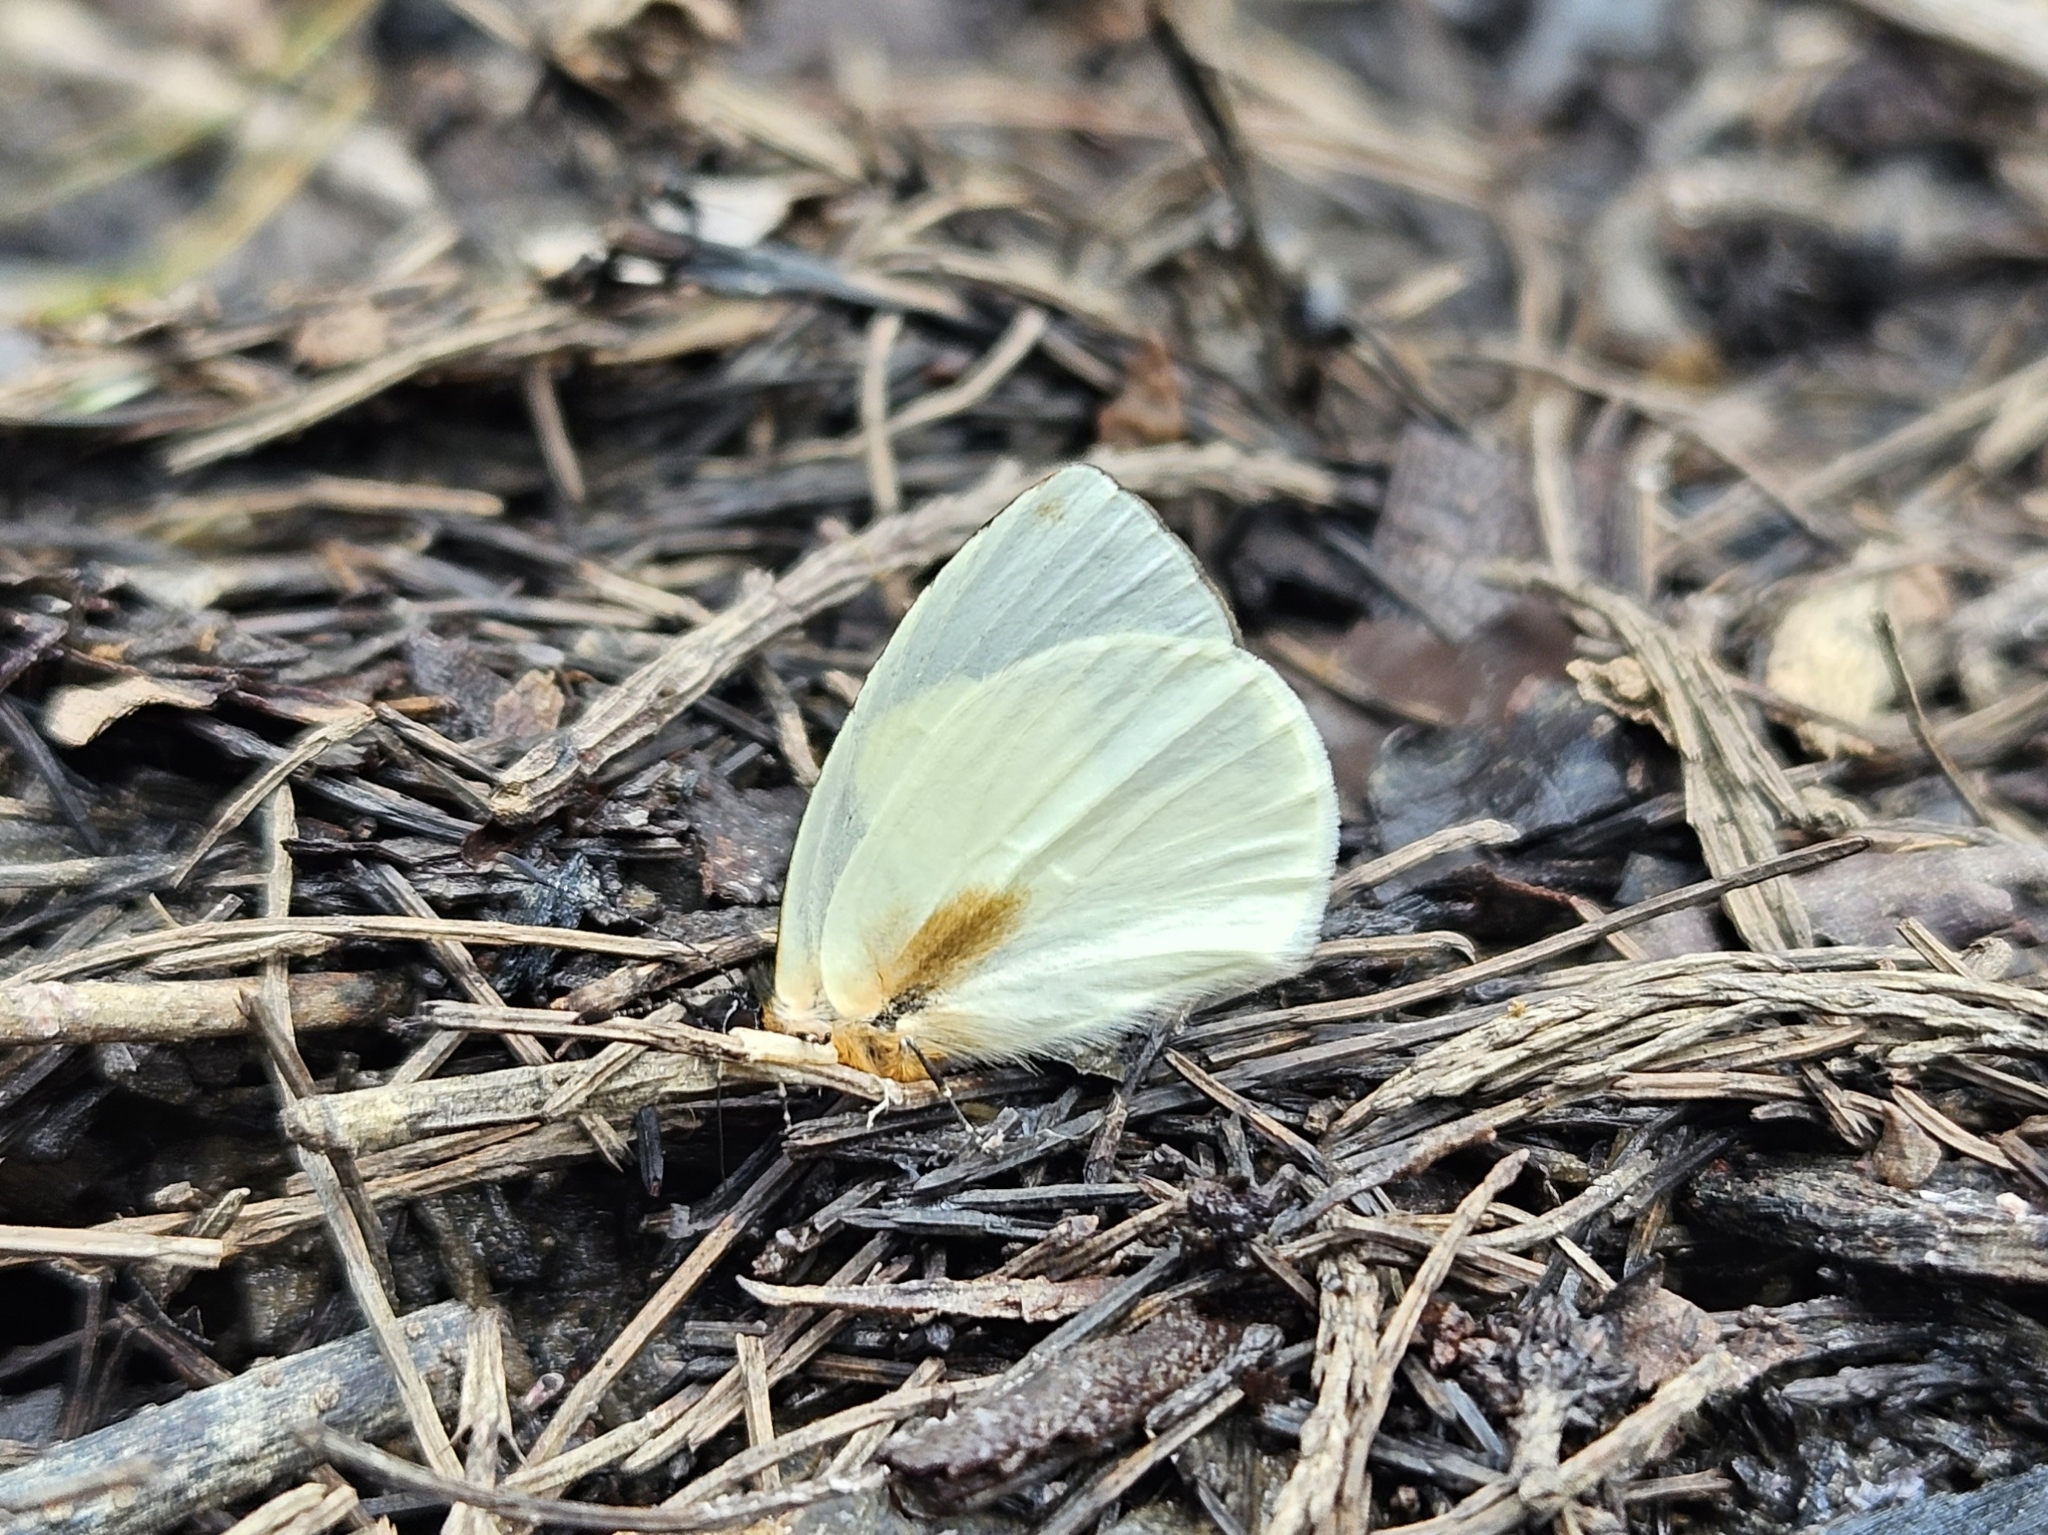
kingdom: Animalia
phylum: Arthropoda
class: Insecta
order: Lepidoptera
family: Lycaenidae
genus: Parelodina
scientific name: Parelodina aroa
